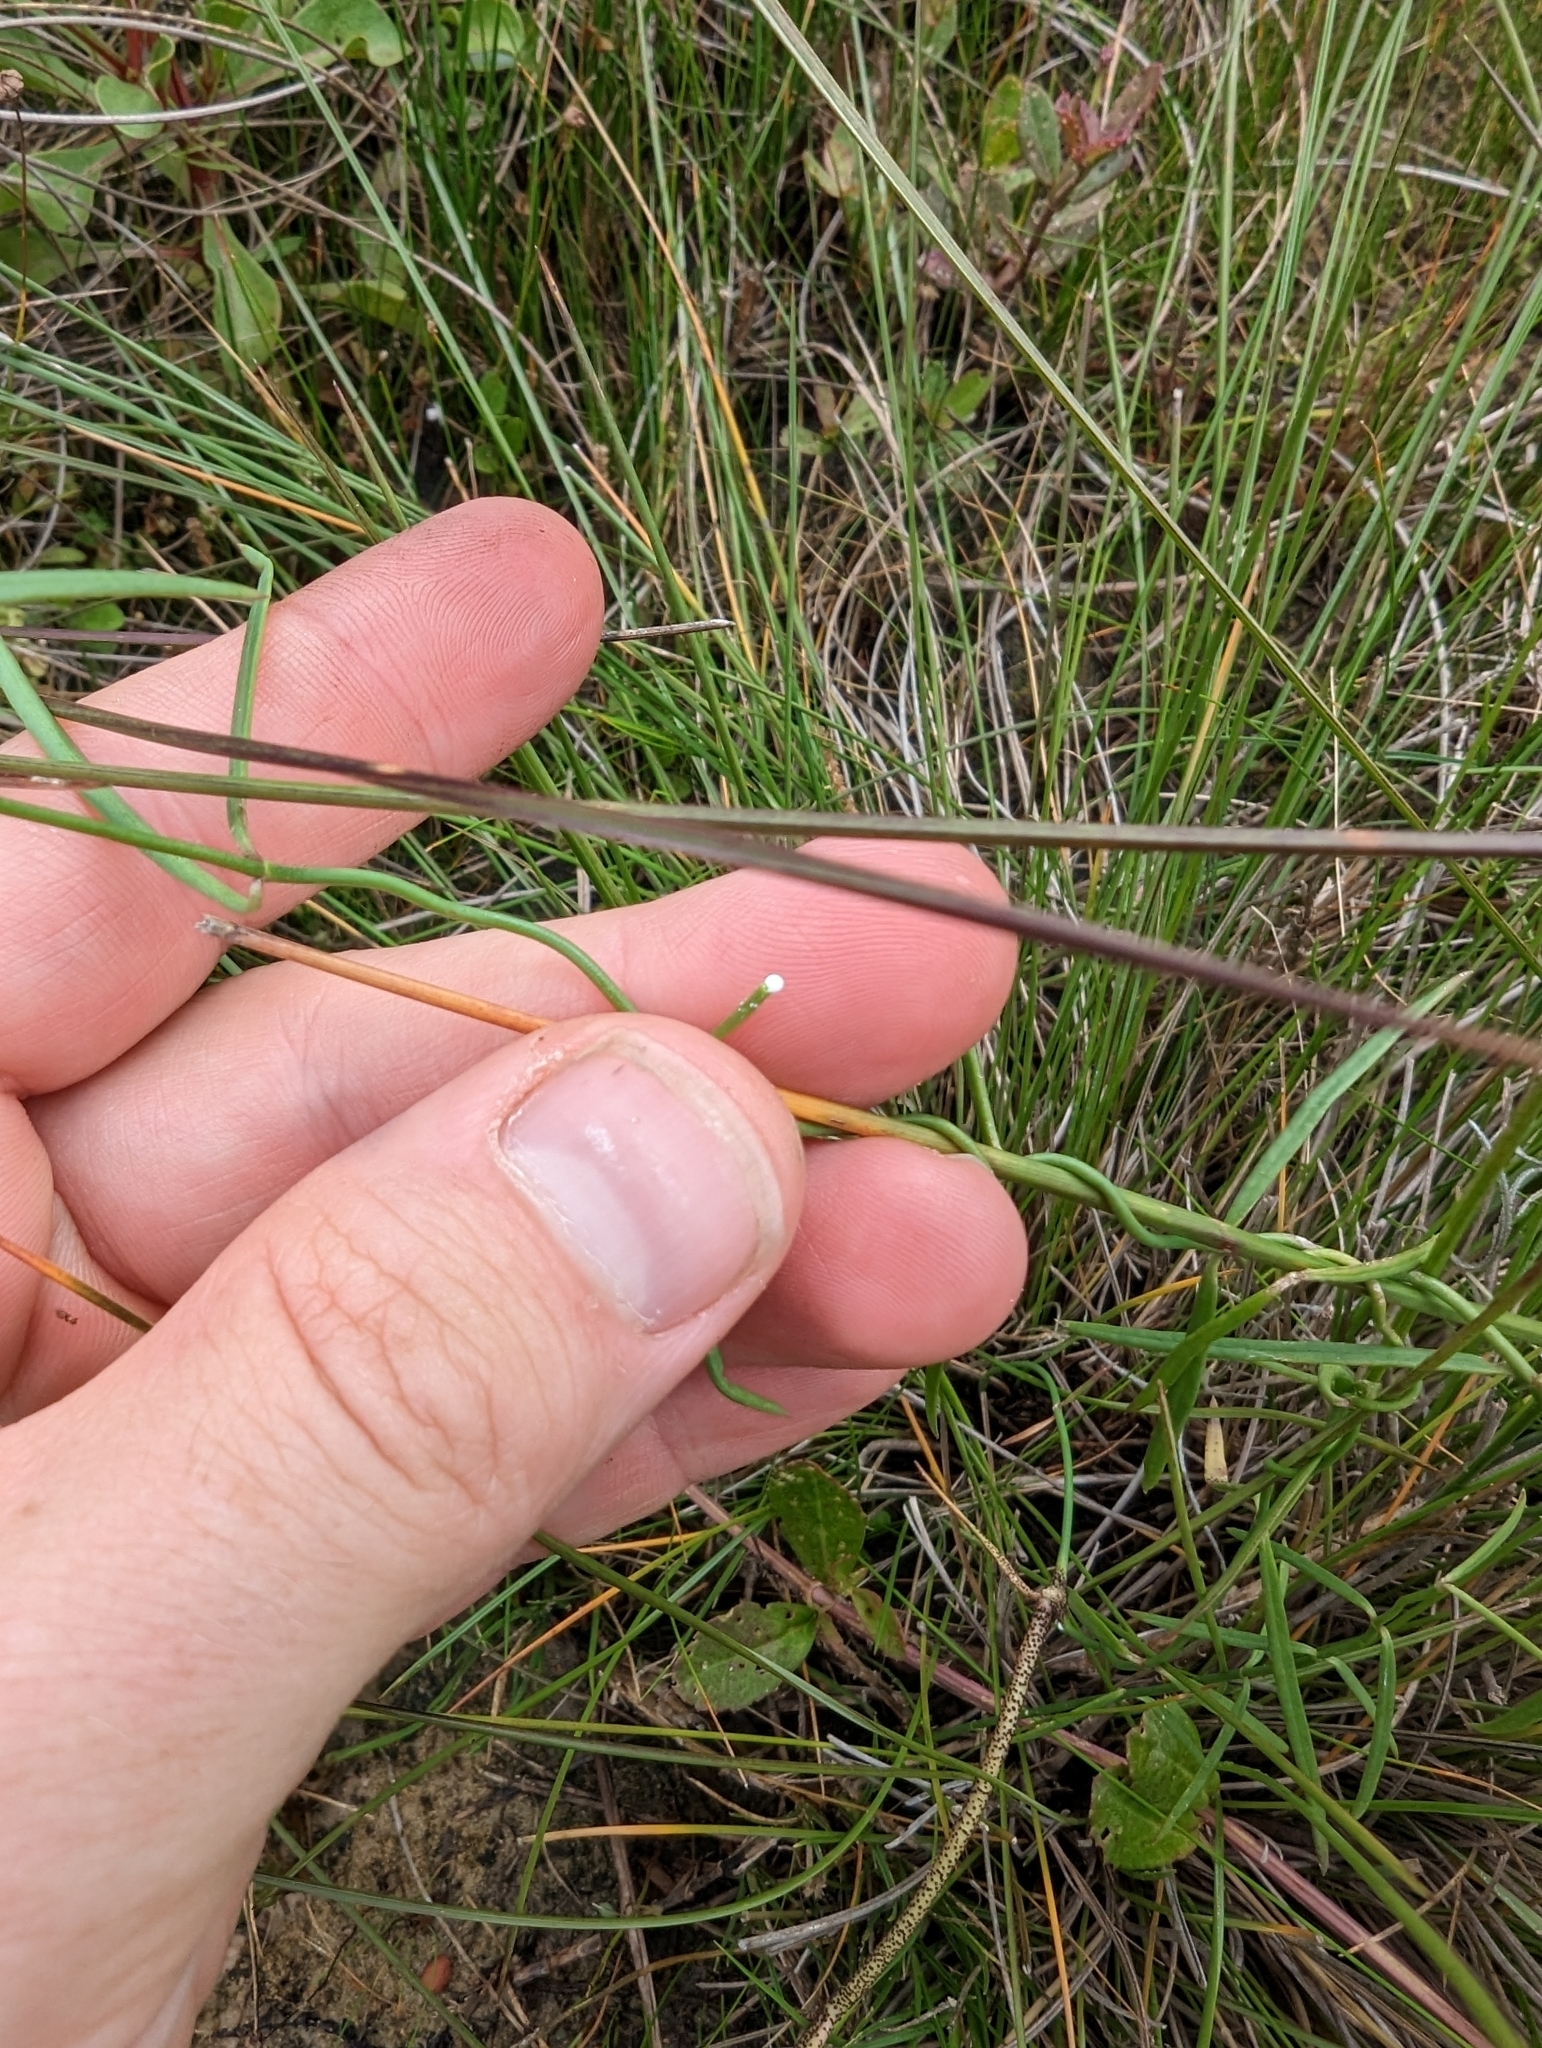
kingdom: Plantae
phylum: Tracheophyta
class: Magnoliopsida
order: Gentianales
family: Apocynaceae
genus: Pattalias
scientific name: Pattalias
